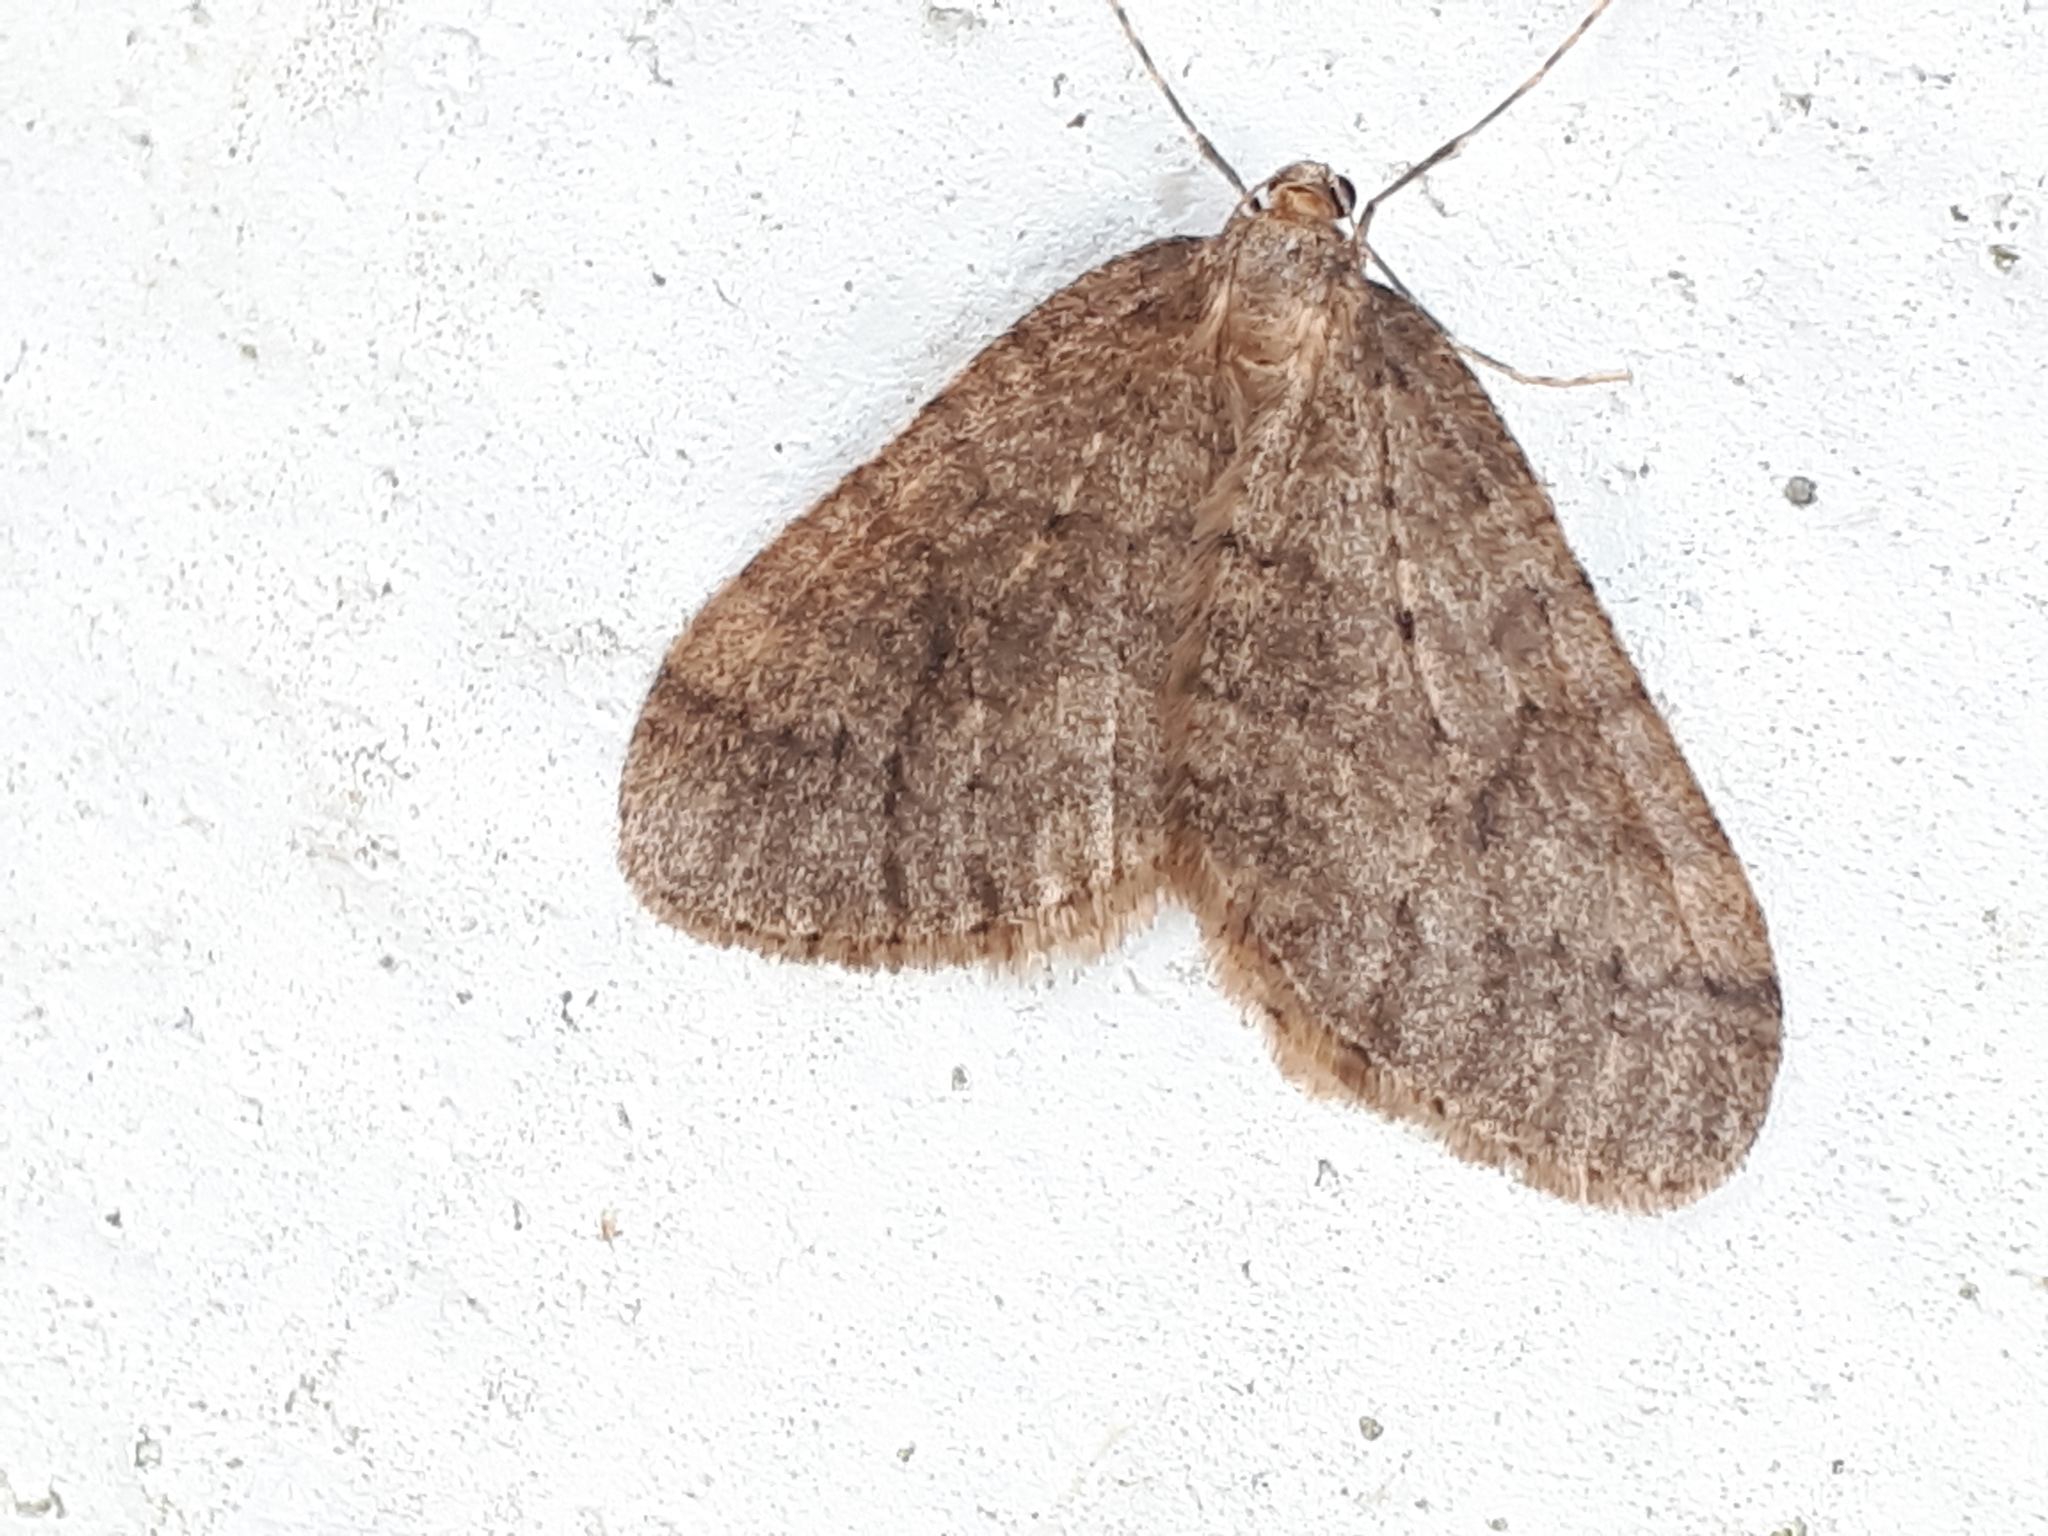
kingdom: Animalia
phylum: Arthropoda
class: Insecta
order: Lepidoptera
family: Geometridae
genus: Operophtera
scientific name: Operophtera brumata
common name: Winter moth
